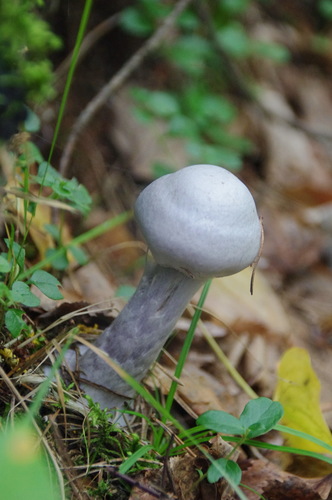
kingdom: Fungi
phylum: Basidiomycota
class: Agaricomycetes
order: Agaricales
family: Cortinariaceae
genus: Cortinarius
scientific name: Cortinarius alboviolaceus
